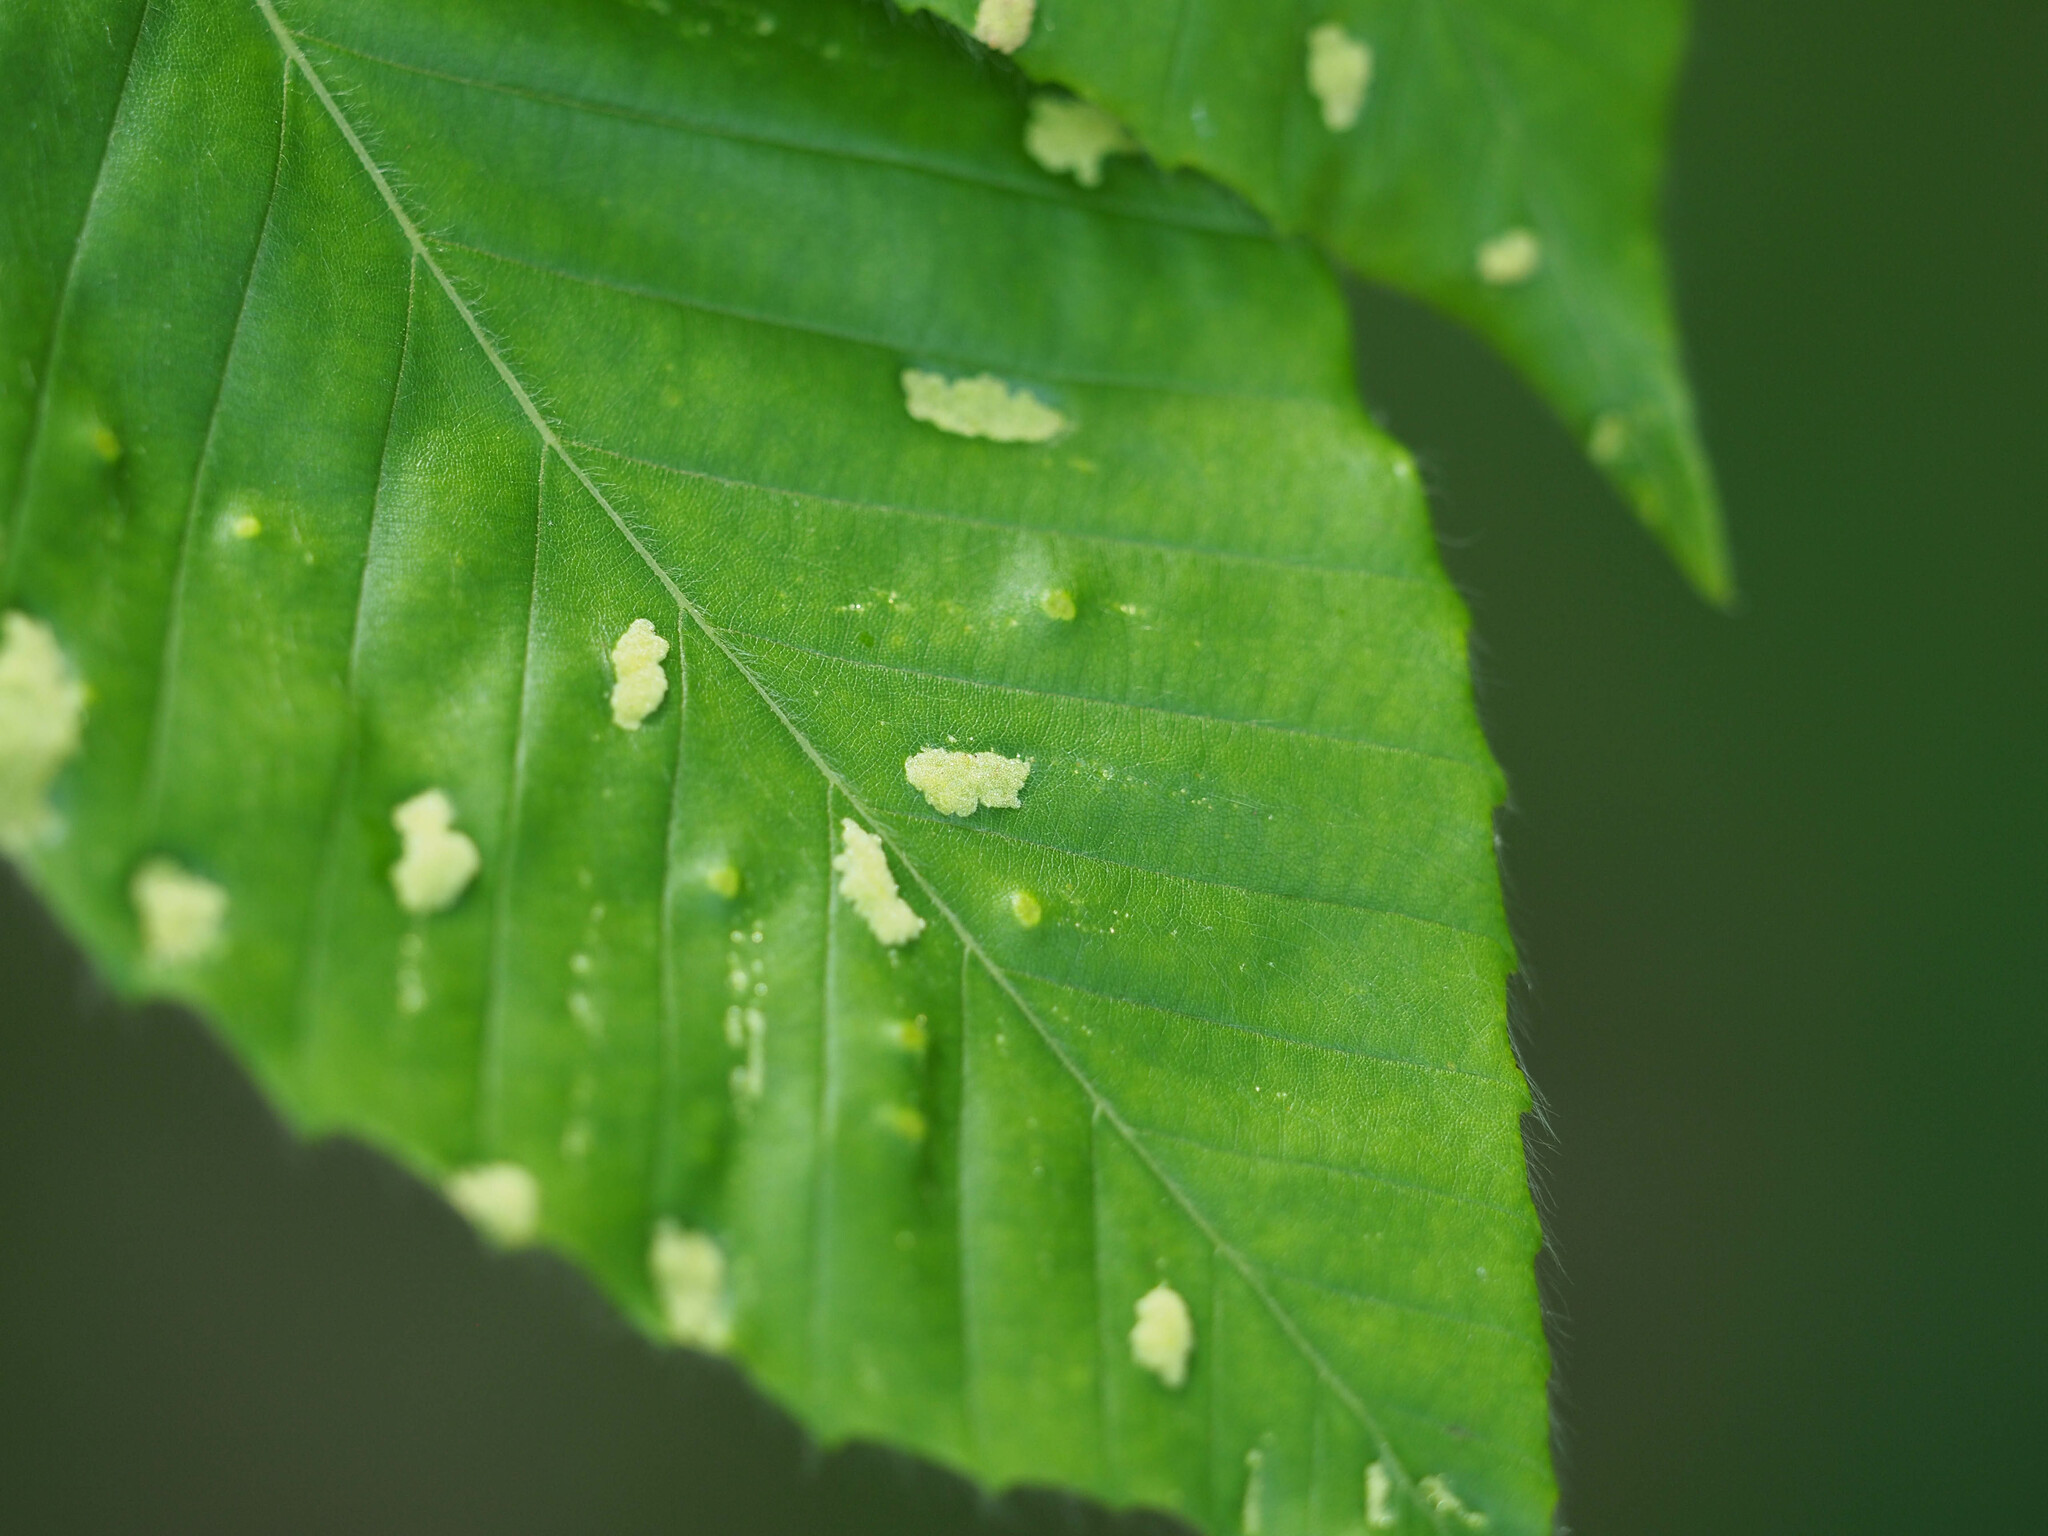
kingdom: Animalia
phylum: Arthropoda
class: Arachnida
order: Trombidiformes
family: Eriophyidae
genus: Acalitus
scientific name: Acalitus
